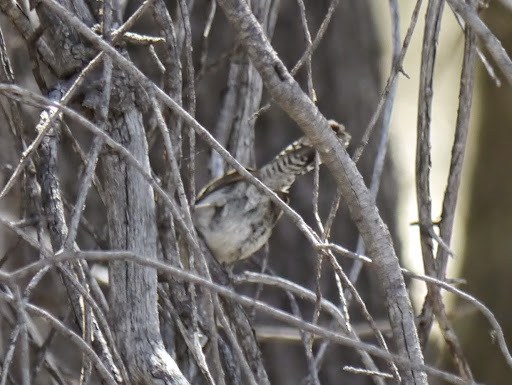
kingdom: Animalia
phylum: Chordata
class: Aves
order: Passeriformes
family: Troglodytidae
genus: Thryomanes
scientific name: Thryomanes bewickii
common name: Bewick's wren
